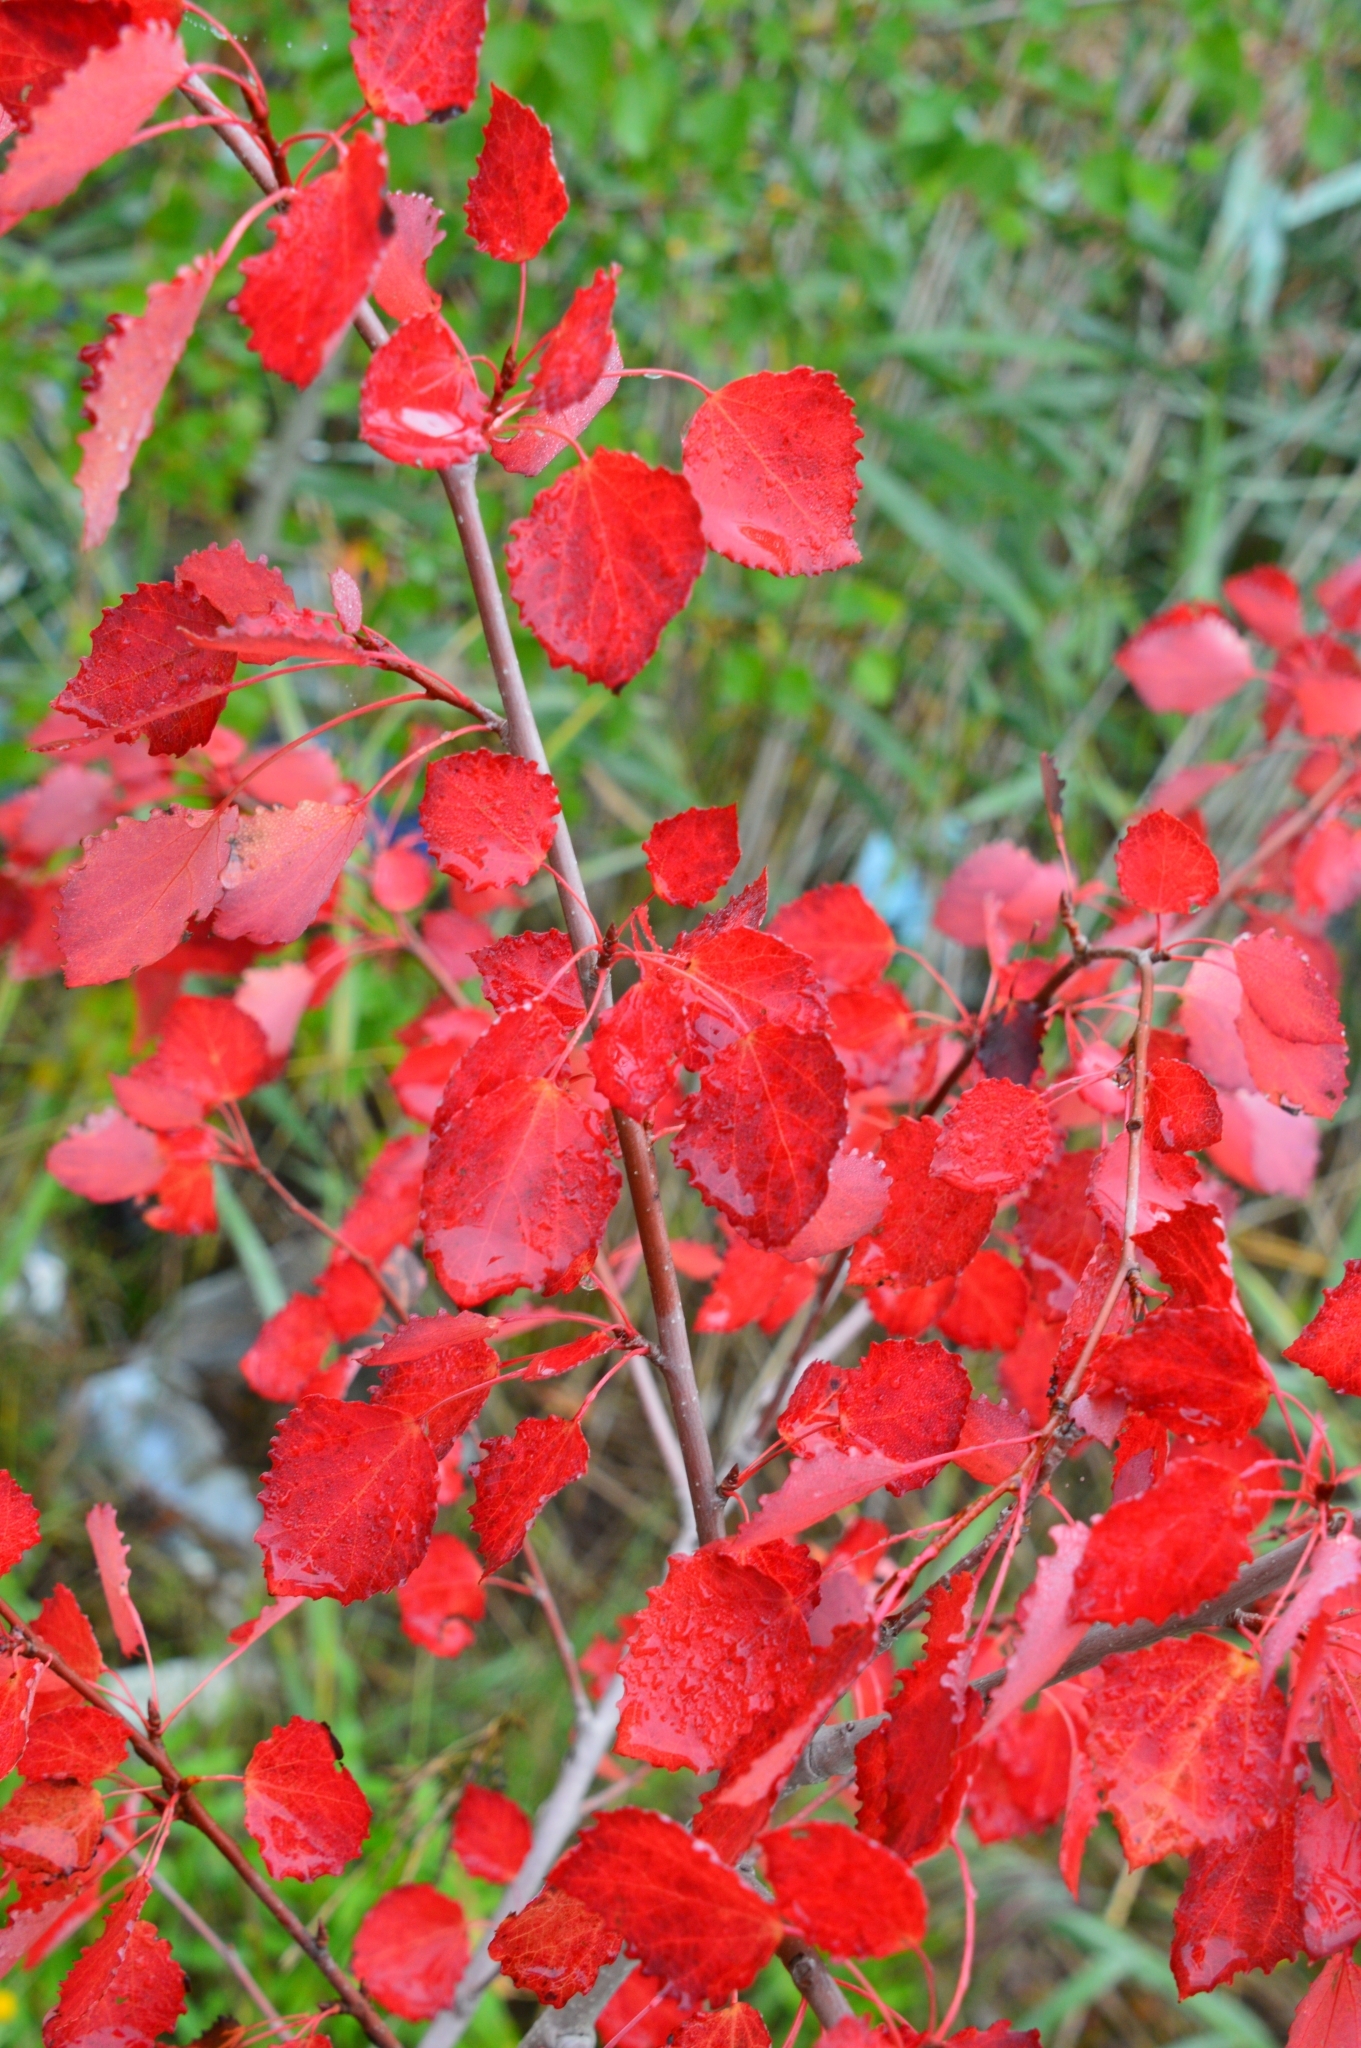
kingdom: Plantae
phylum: Tracheophyta
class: Magnoliopsida
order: Malpighiales
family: Salicaceae
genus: Populus
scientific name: Populus tremula
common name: European aspen
